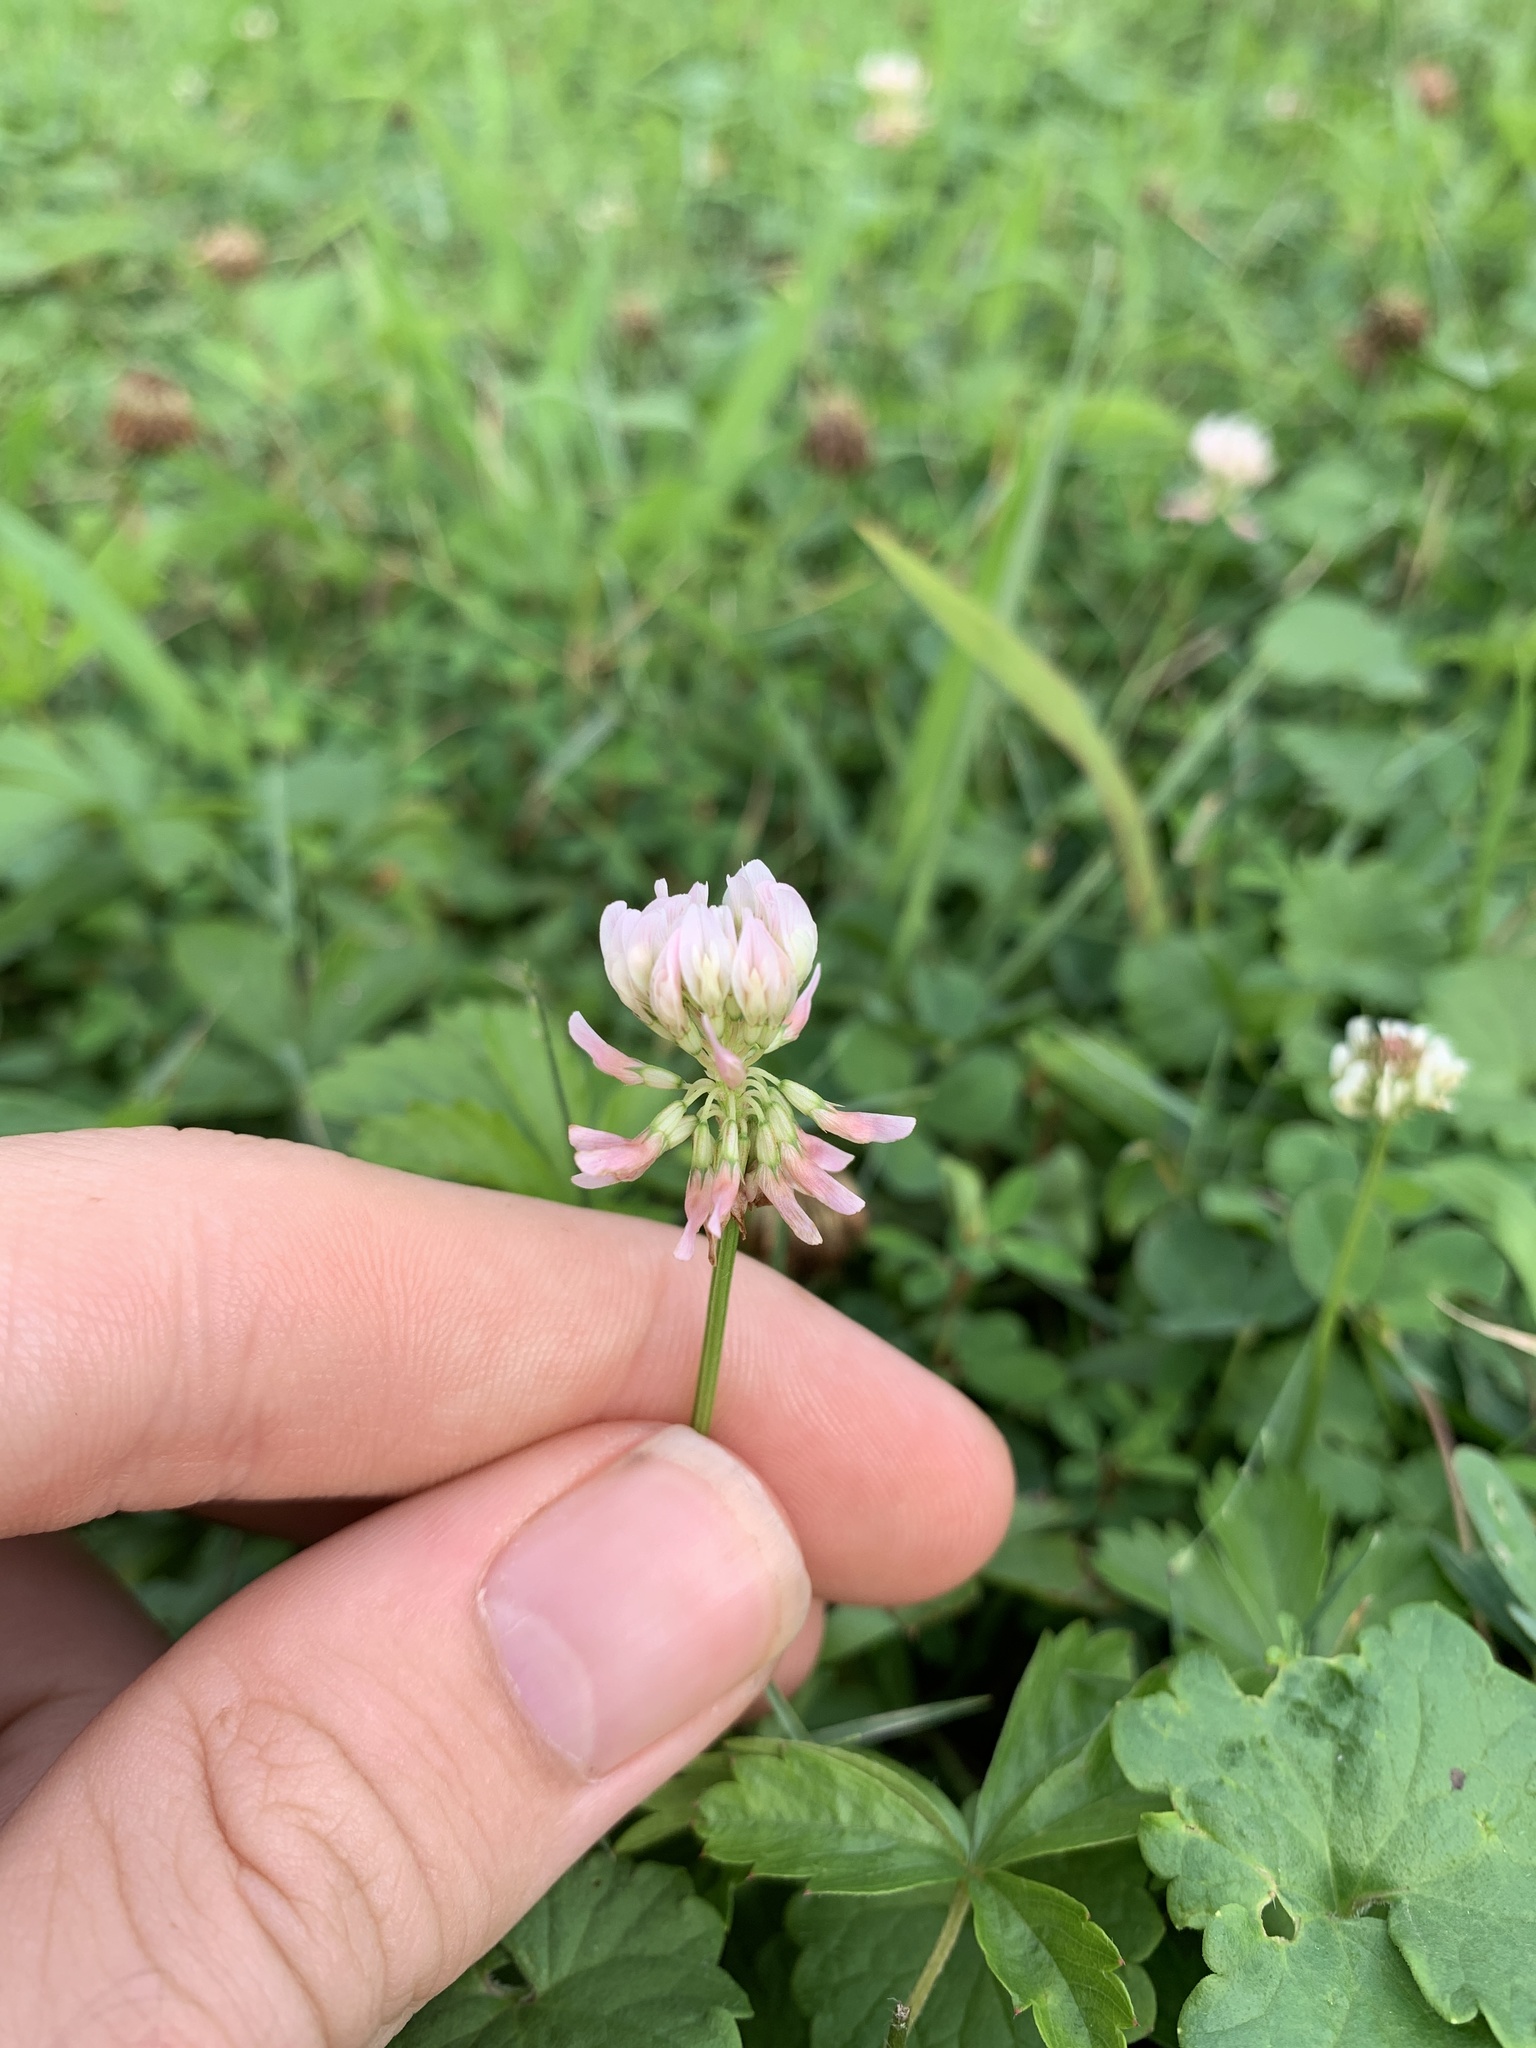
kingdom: Plantae
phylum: Tracheophyta
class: Magnoliopsida
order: Fabales
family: Fabaceae
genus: Trifolium
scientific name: Trifolium repens
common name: White clover
